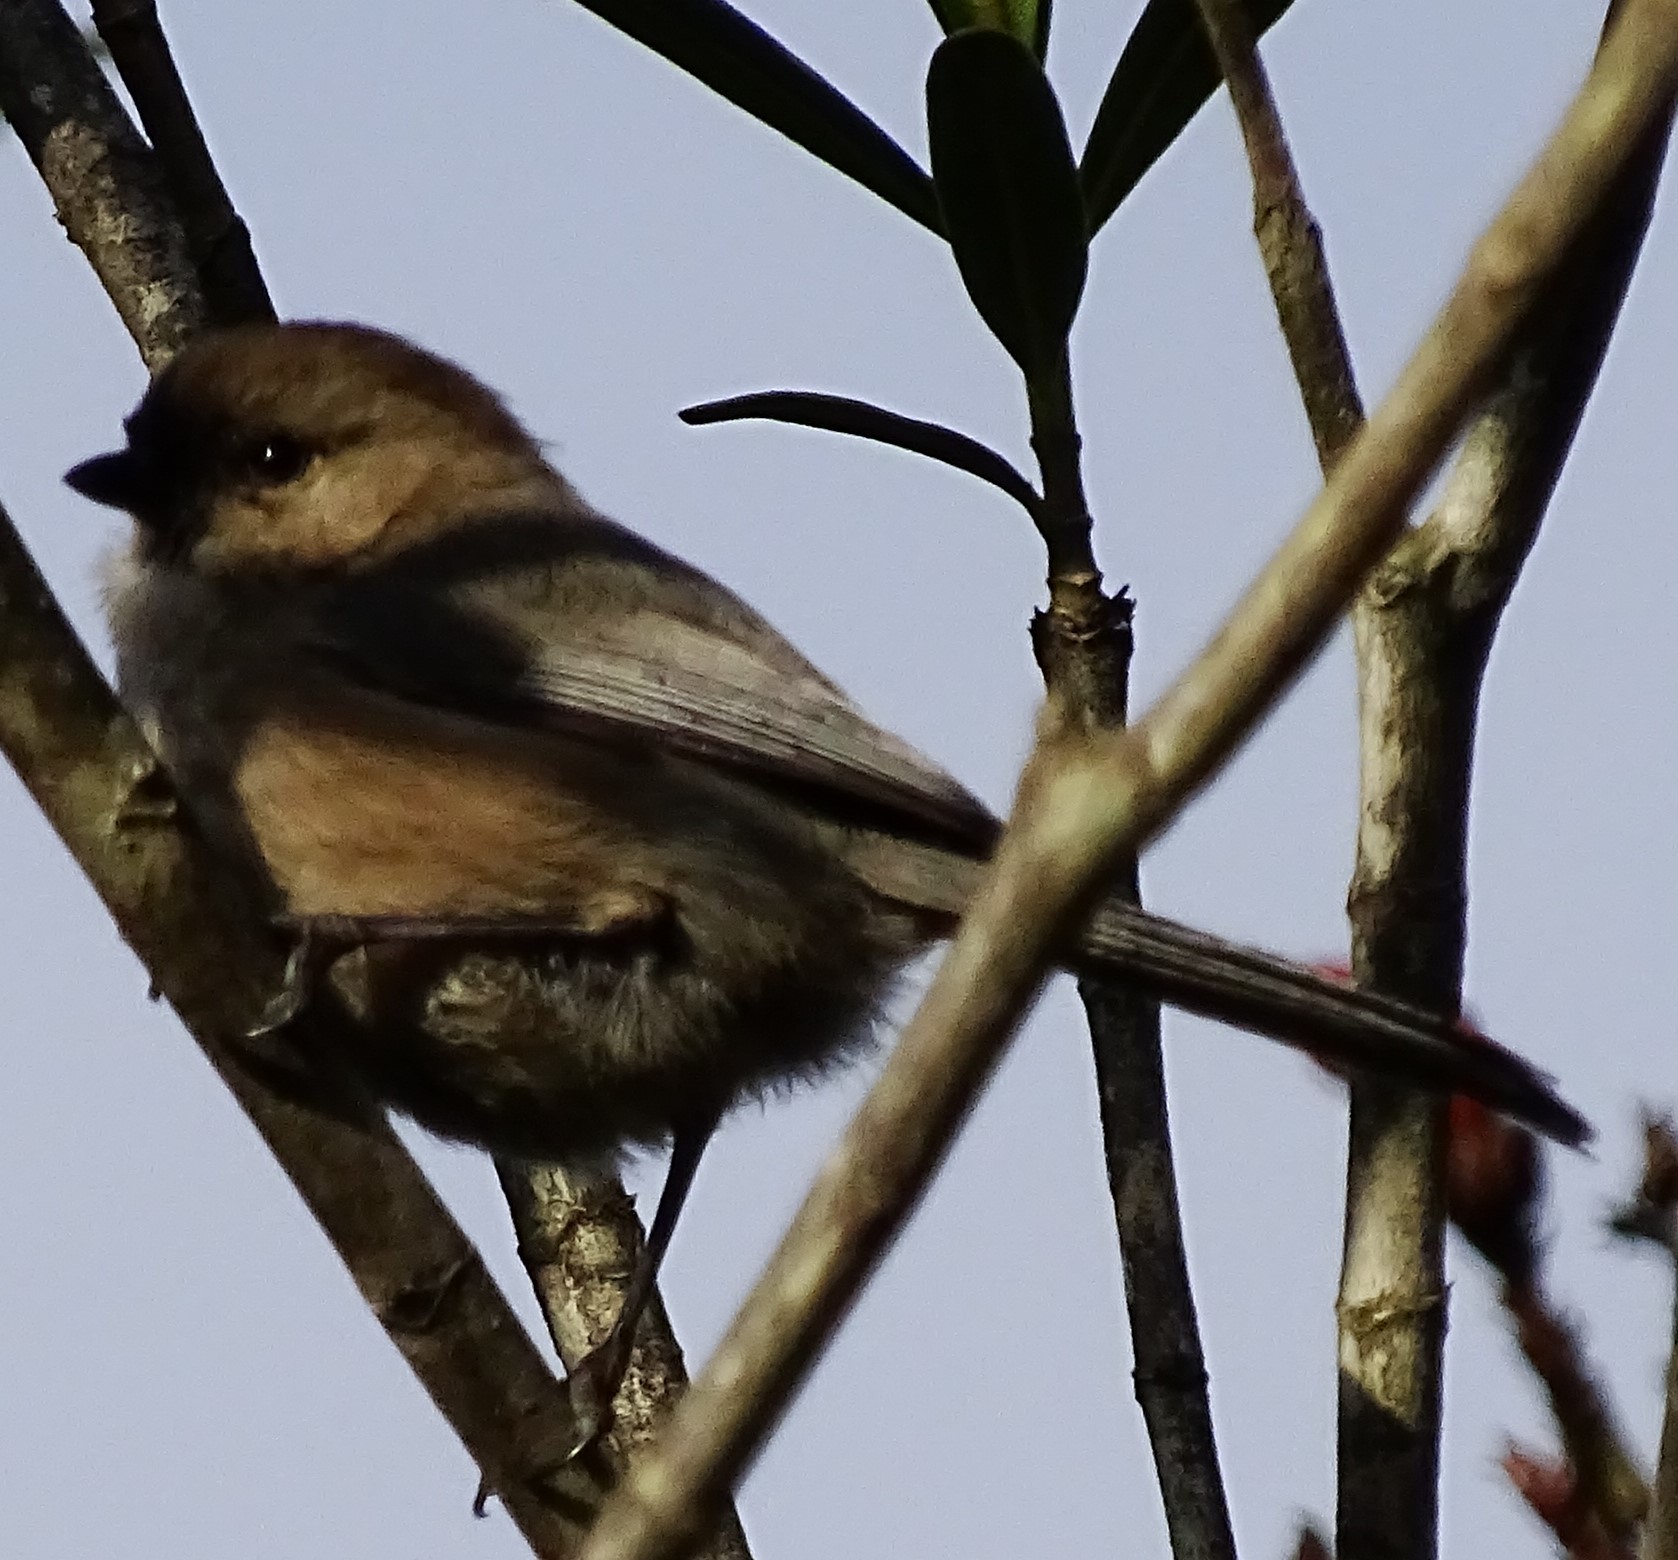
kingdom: Animalia
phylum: Chordata
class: Aves
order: Passeriformes
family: Aegithalidae
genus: Psaltriparus
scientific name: Psaltriparus minimus
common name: American bushtit
